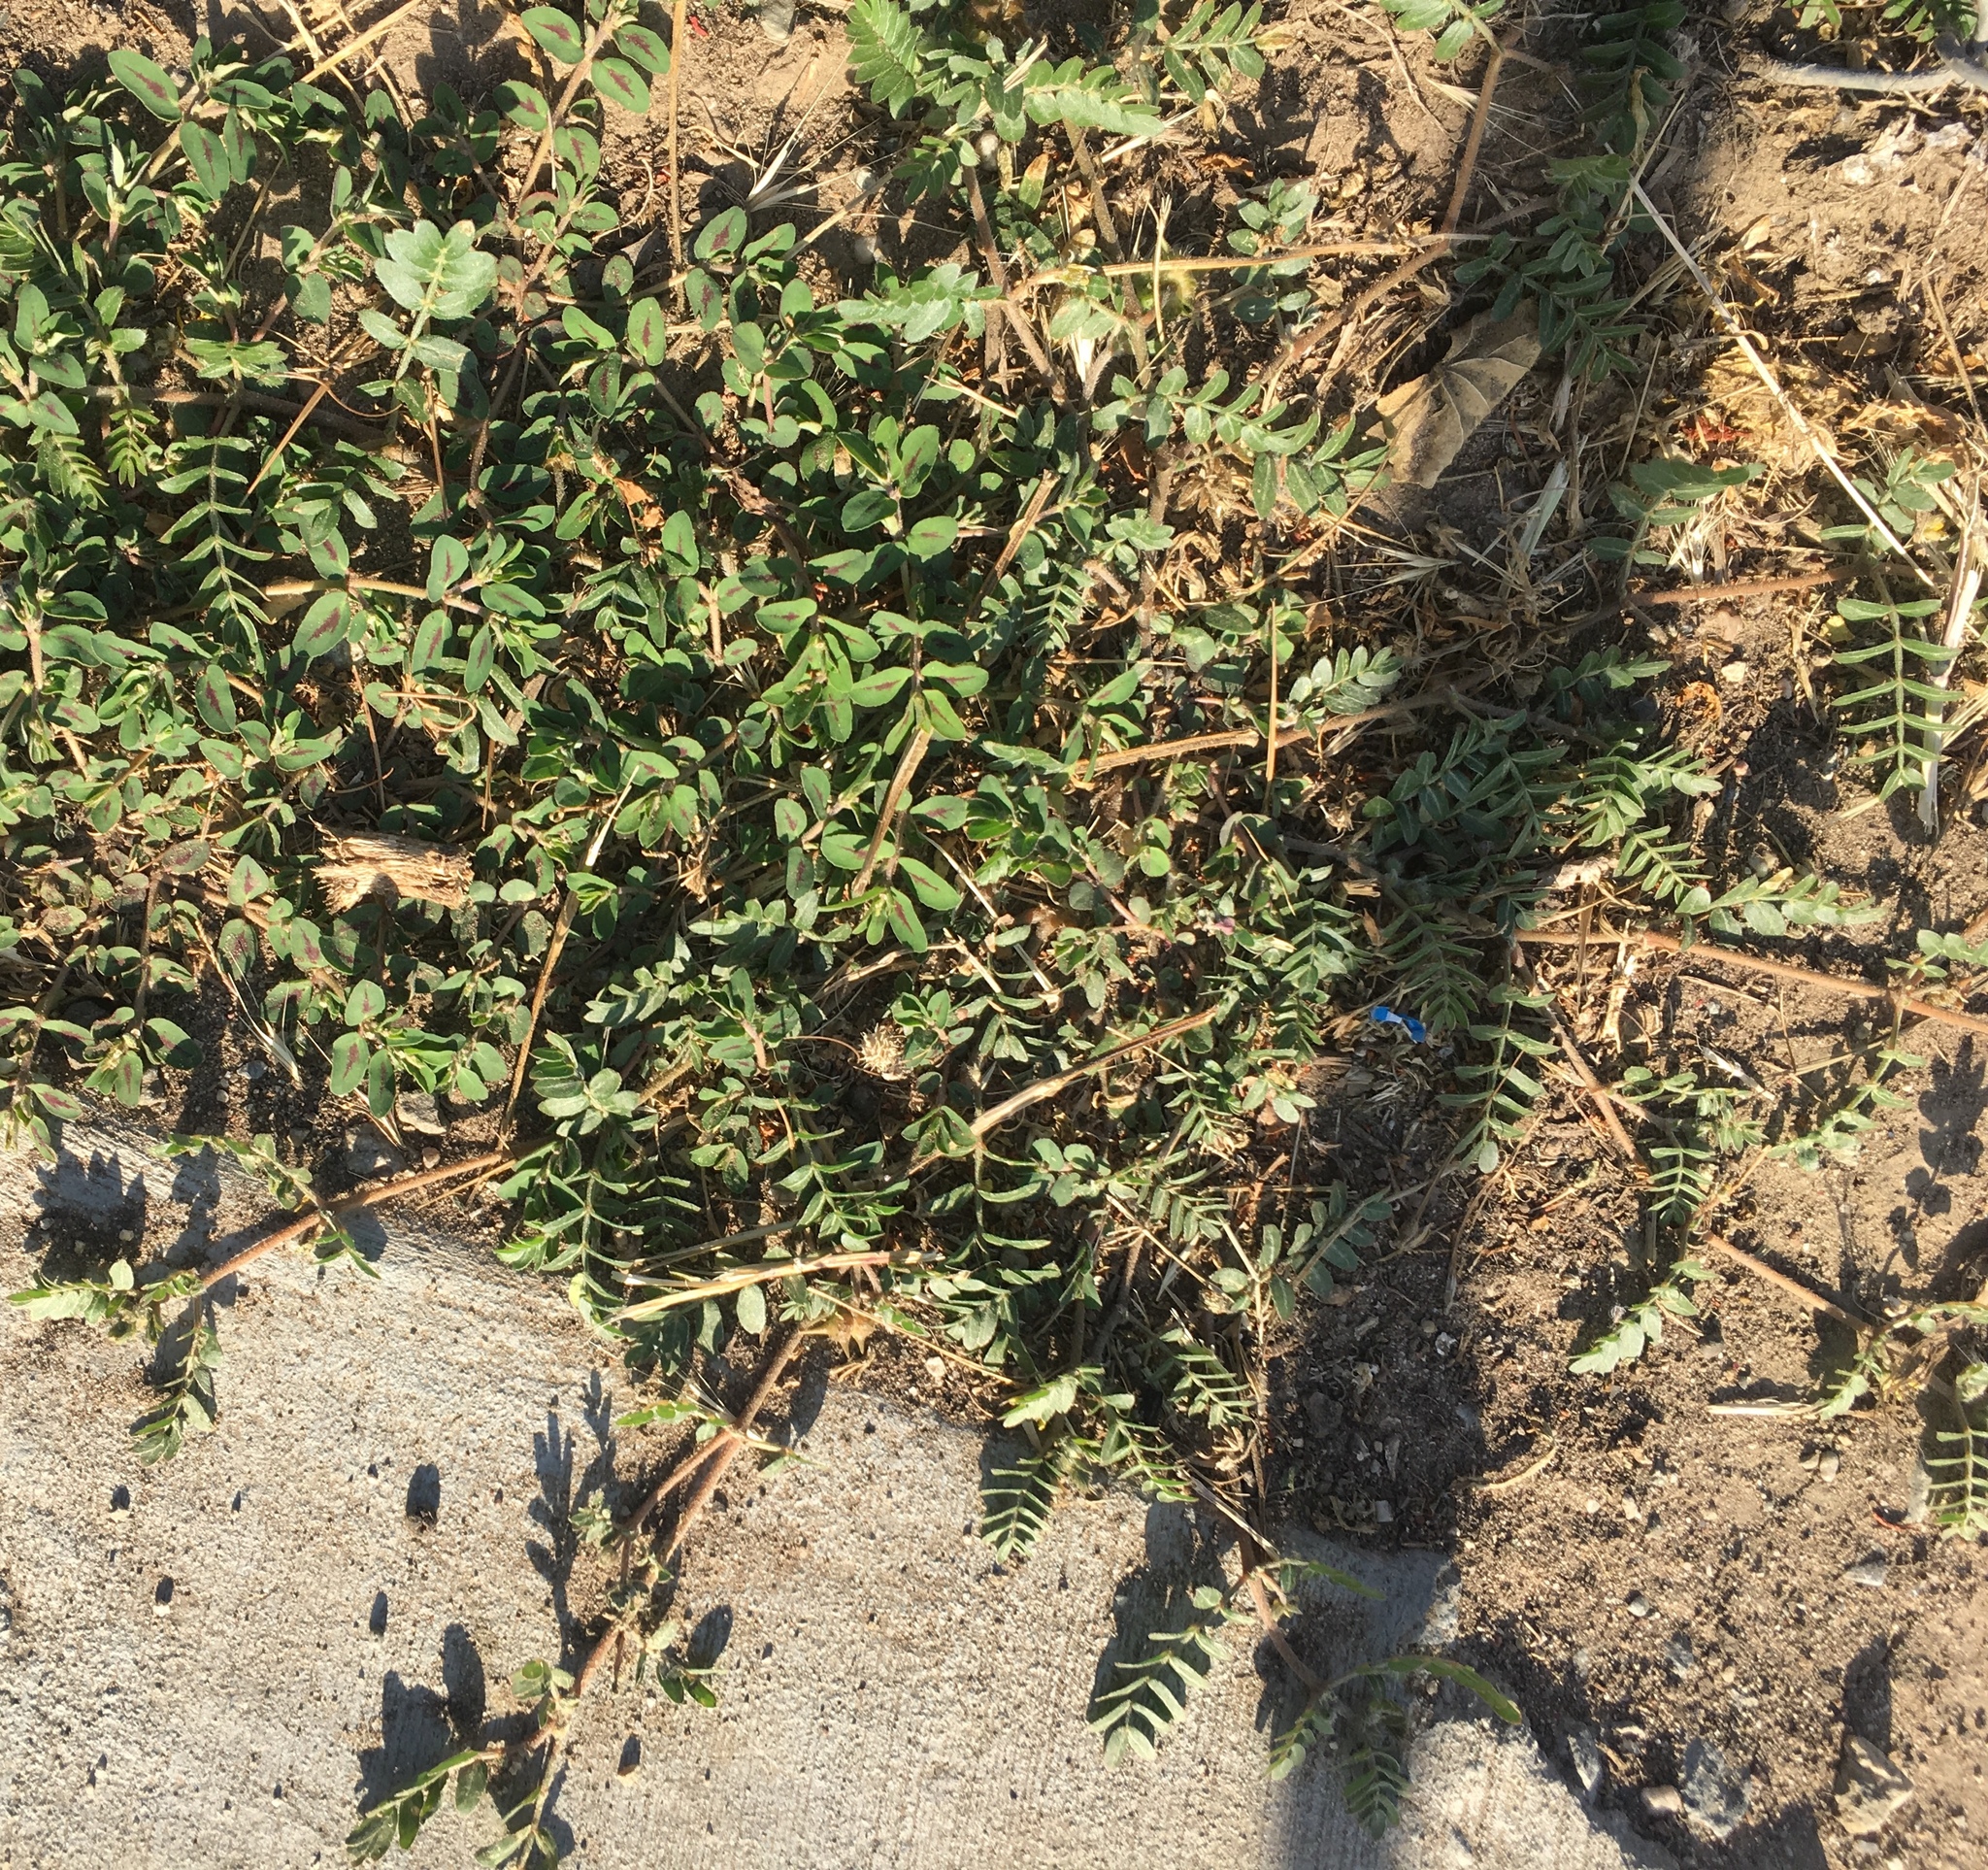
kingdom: Plantae
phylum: Tracheophyta
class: Magnoliopsida
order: Zygophyllales
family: Zygophyllaceae
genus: Tribulus
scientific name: Tribulus terrestris
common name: Puncturevine
